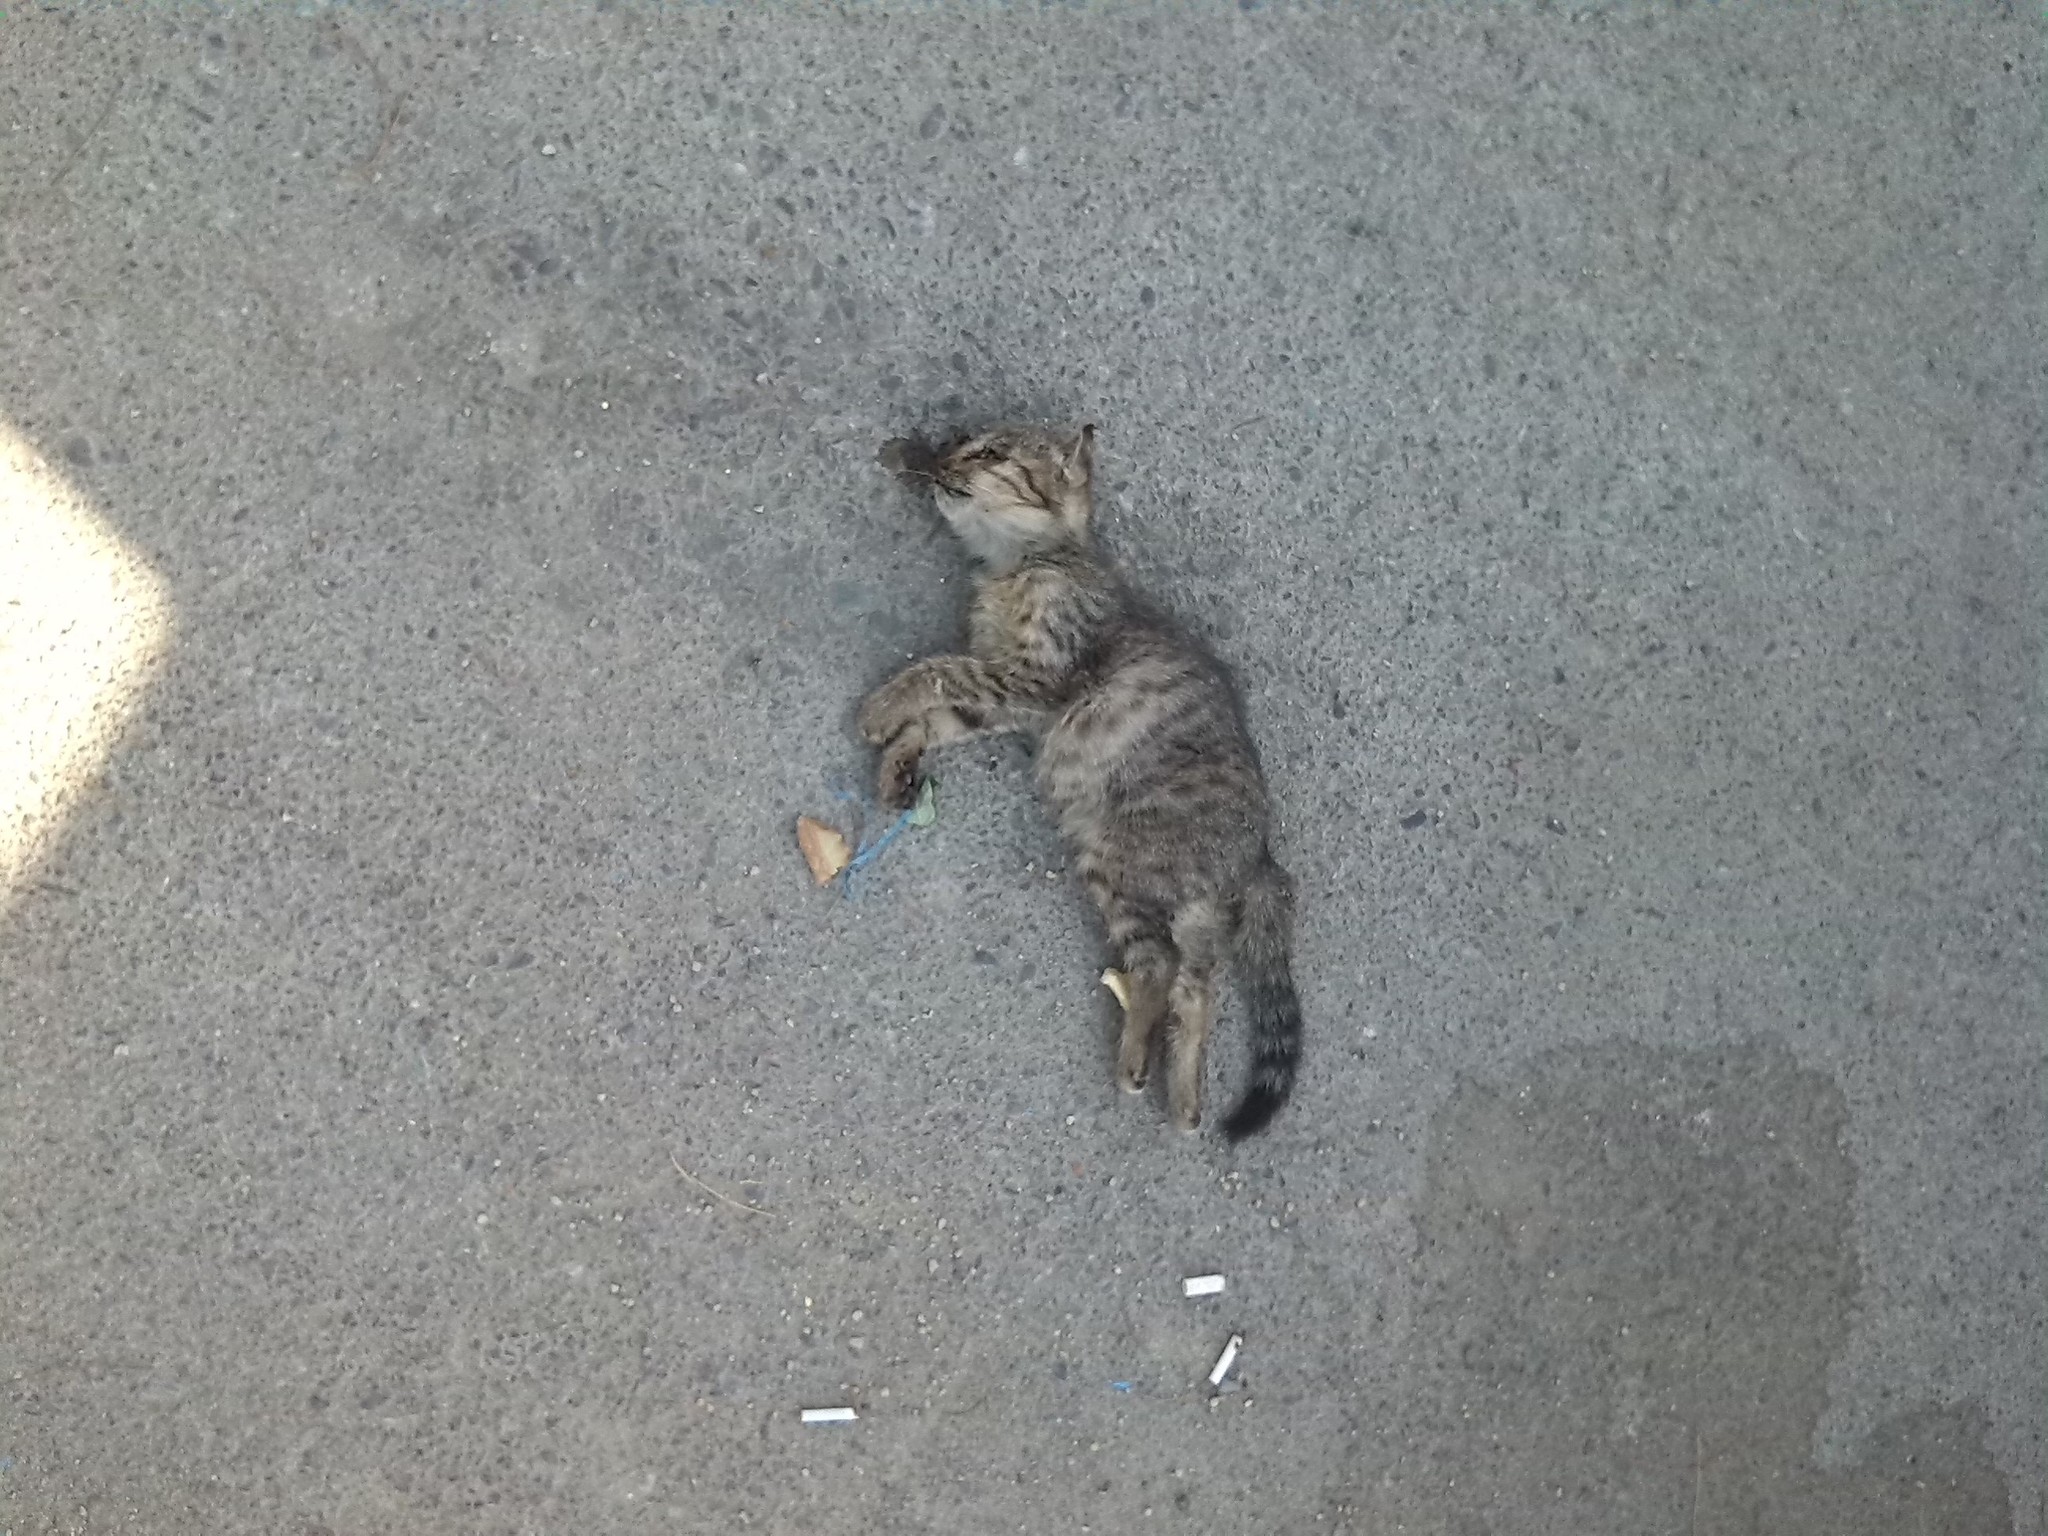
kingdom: Animalia
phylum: Chordata
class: Mammalia
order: Carnivora
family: Felidae
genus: Felis
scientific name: Felis catus
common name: Domestic cat
